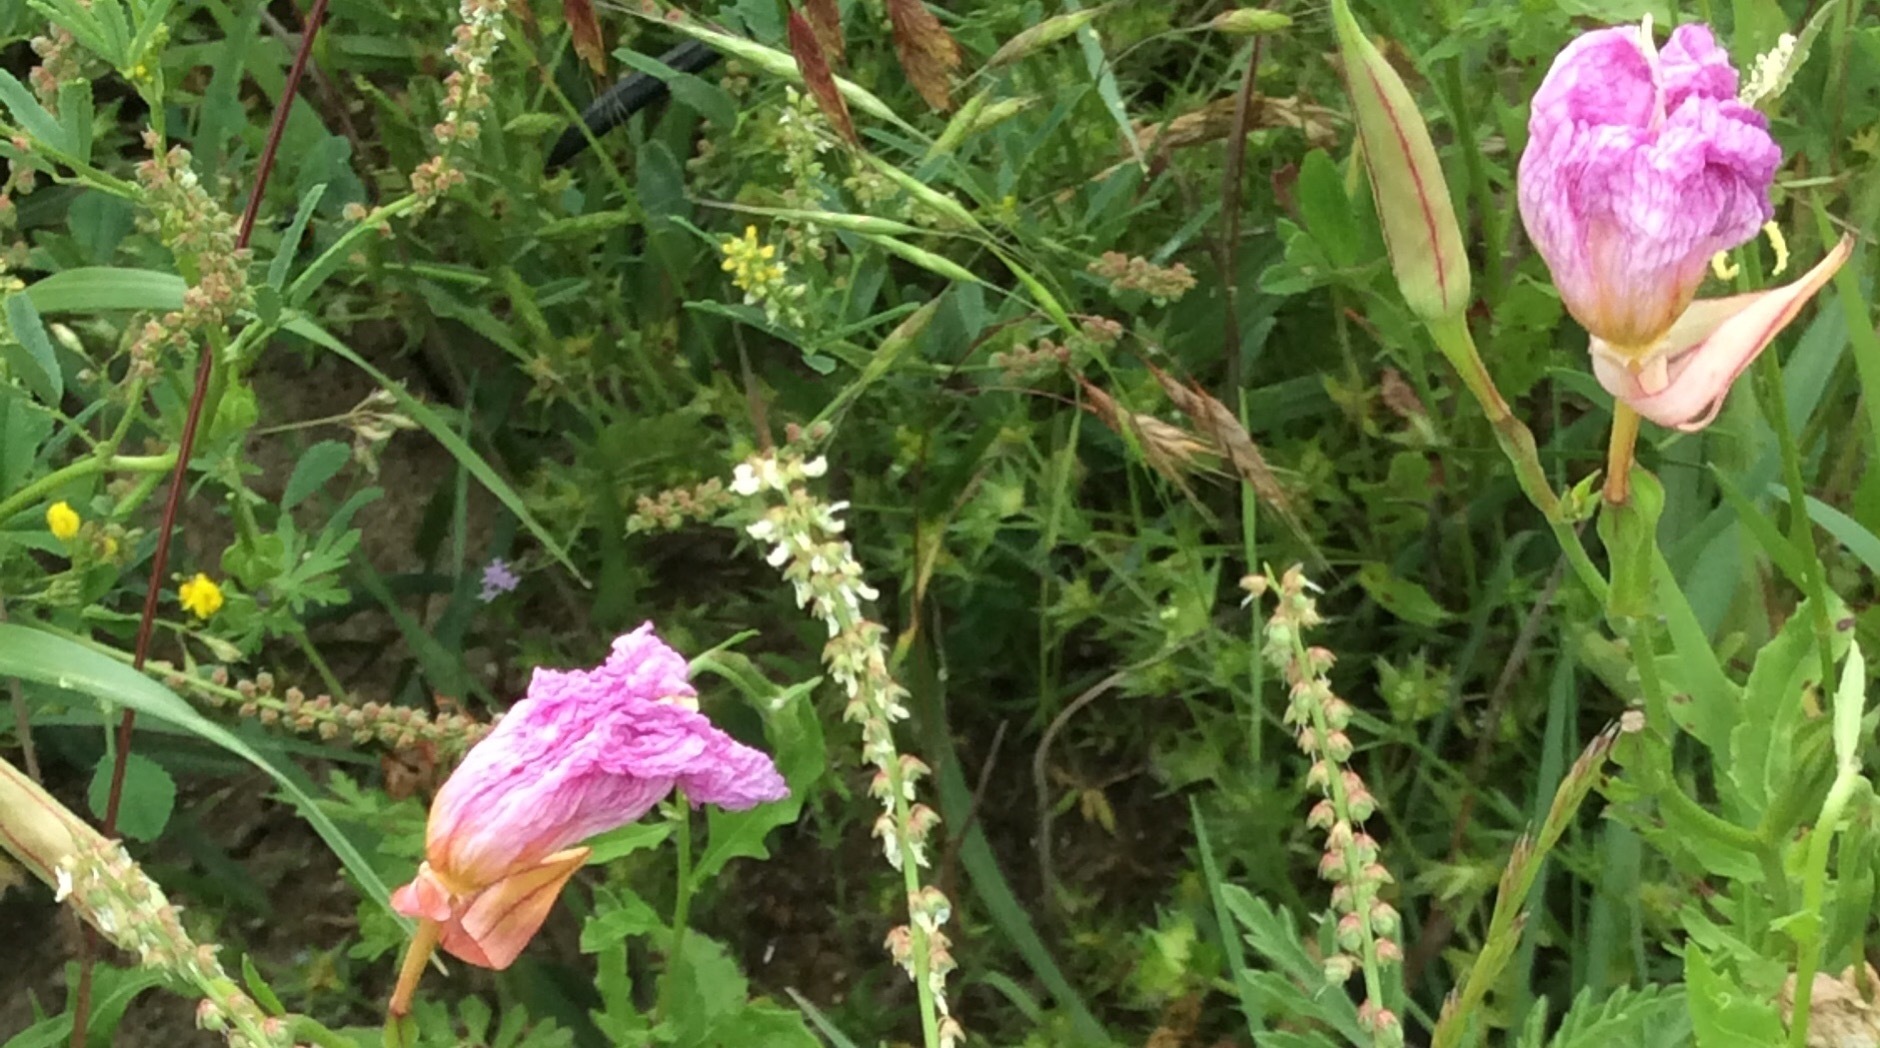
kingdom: Plantae
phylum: Tracheophyta
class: Magnoliopsida
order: Myrtales
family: Onagraceae
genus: Oenothera
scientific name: Oenothera speciosa
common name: White evening-primrose
